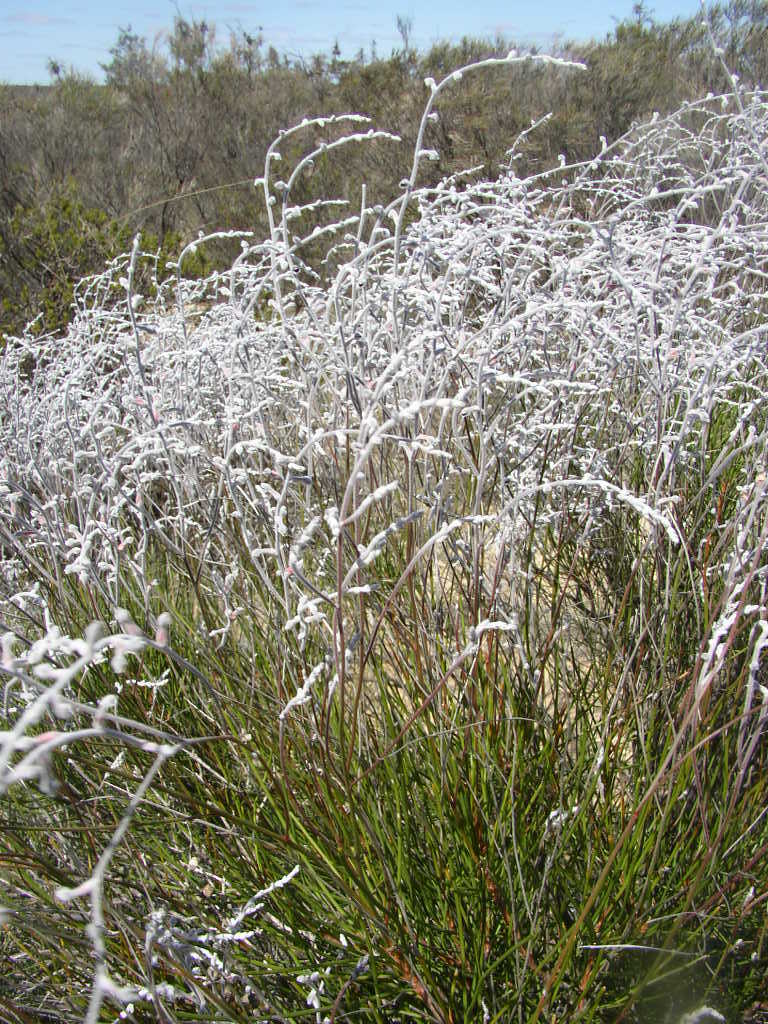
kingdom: Plantae
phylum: Tracheophyta
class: Magnoliopsida
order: Proteales
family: Proteaceae
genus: Conospermum
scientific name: Conospermum incurvum
